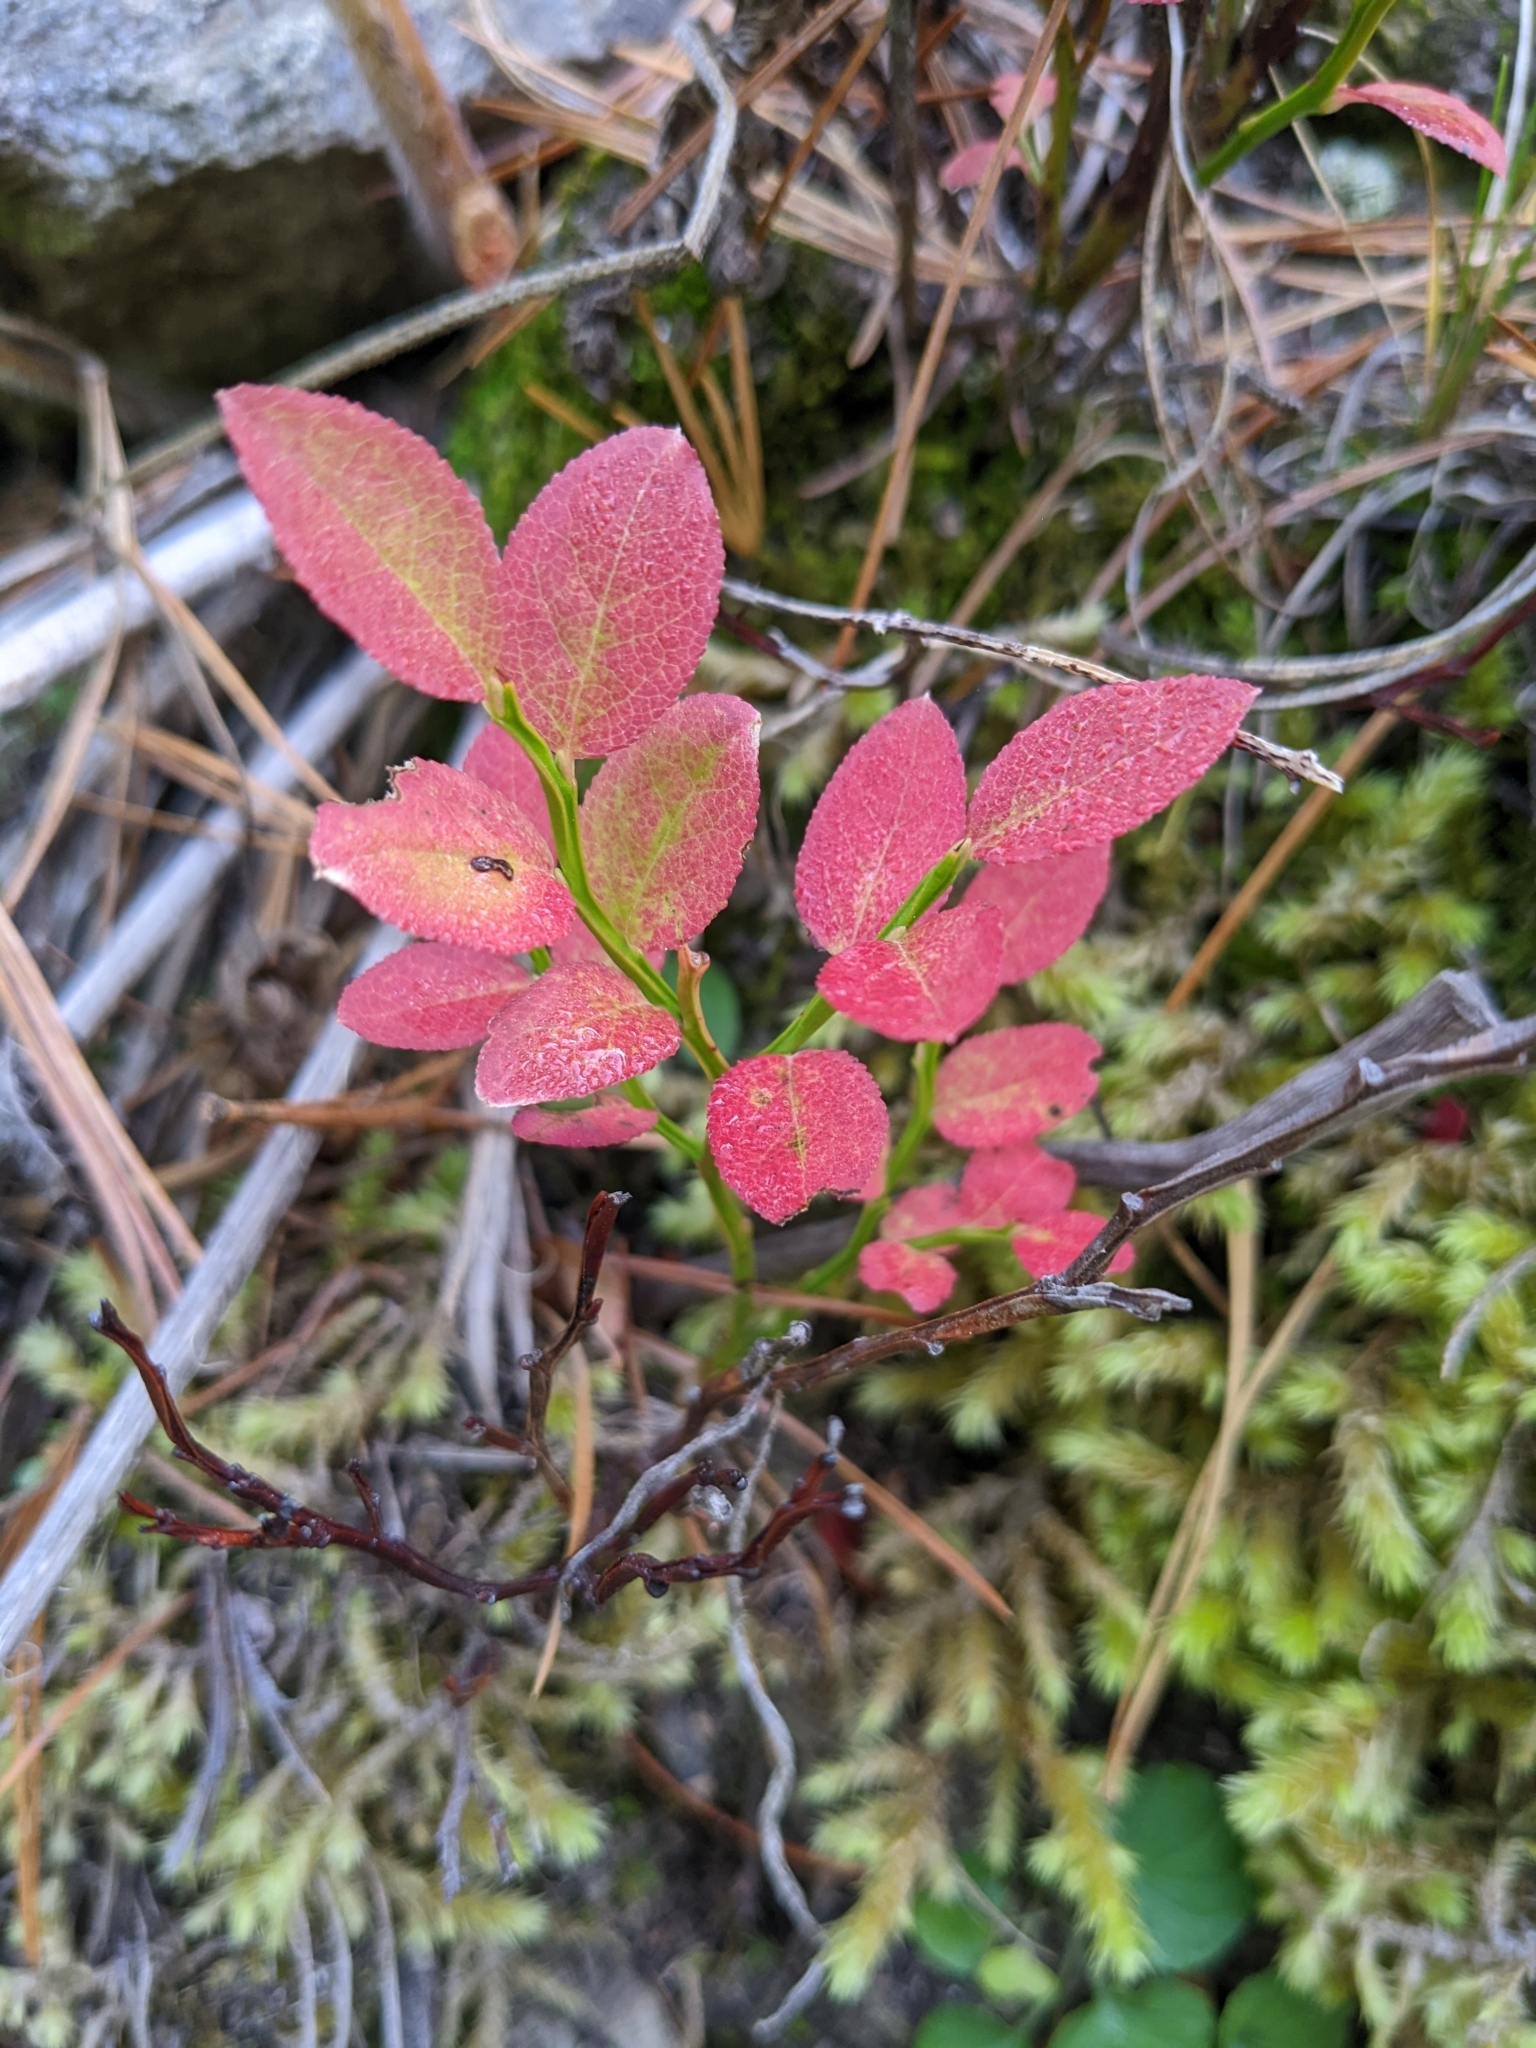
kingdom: Plantae
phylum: Tracheophyta
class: Magnoliopsida
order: Ericales
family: Ericaceae
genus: Vaccinium
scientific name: Vaccinium myrtillus
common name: Bilberry
